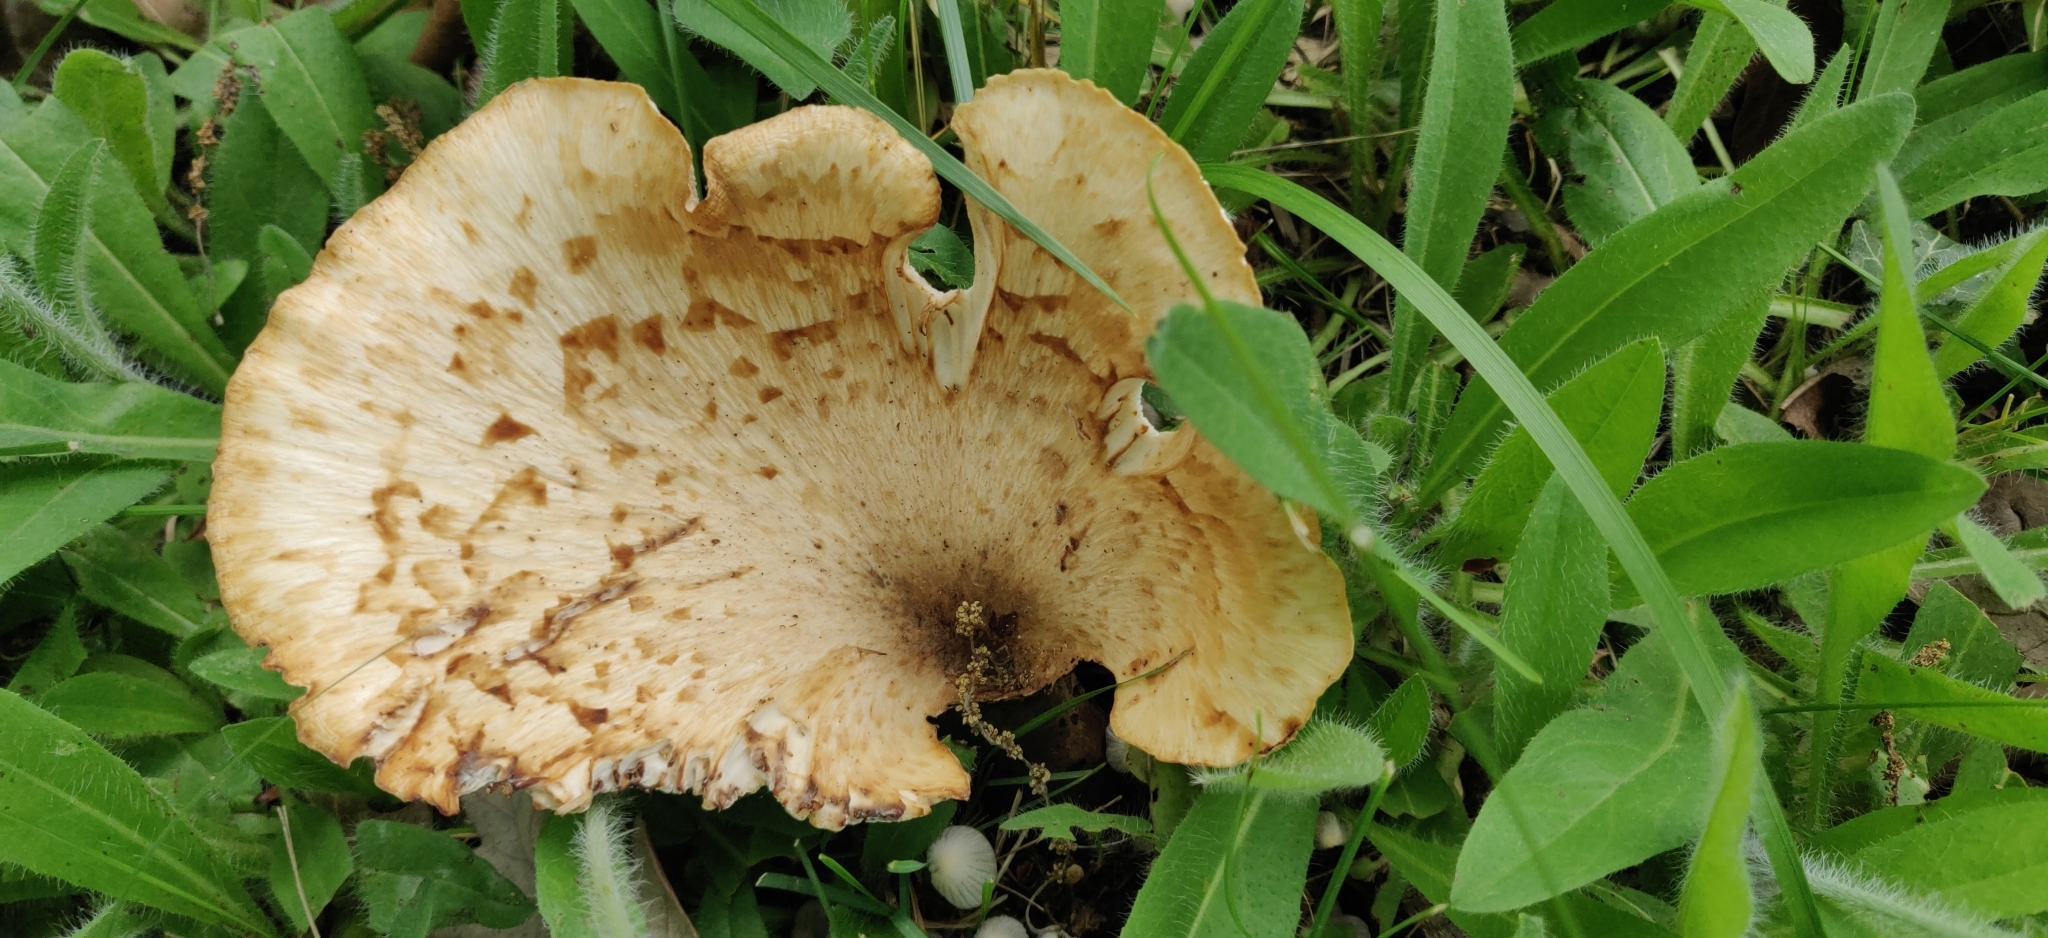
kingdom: Fungi
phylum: Basidiomycota
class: Agaricomycetes
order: Polyporales
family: Polyporaceae
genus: Cerioporus
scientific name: Cerioporus squamosus
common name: Dryad's saddle
